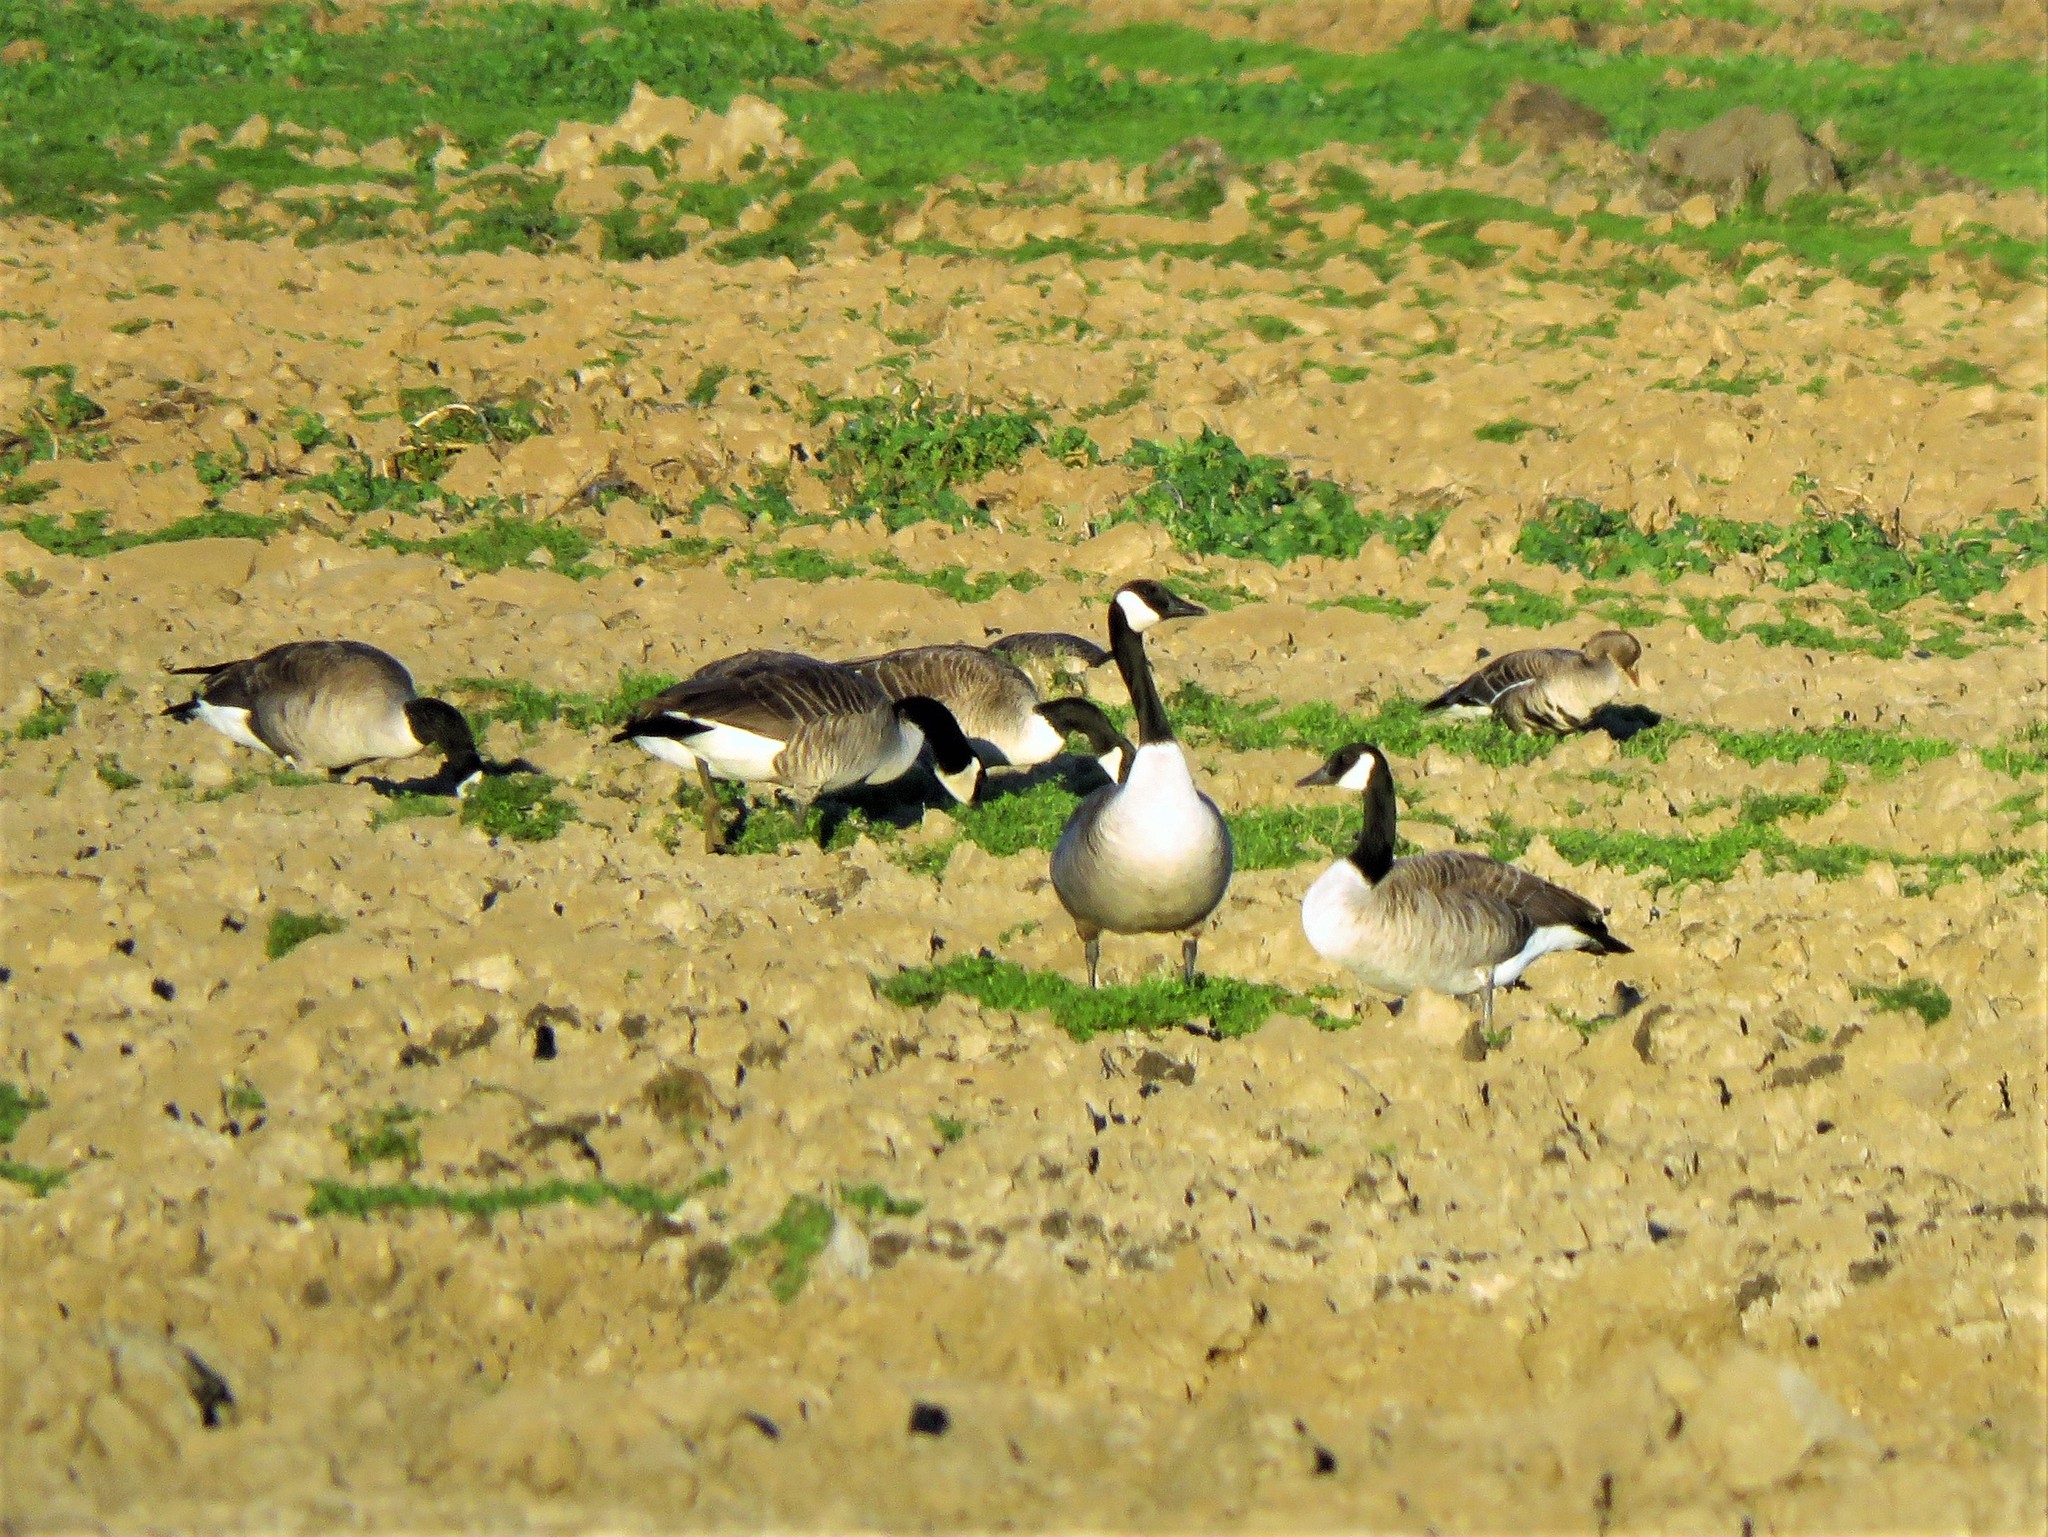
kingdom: Animalia
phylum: Chordata
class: Aves
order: Anseriformes
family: Anatidae
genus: Branta
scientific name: Branta canadensis
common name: Canada goose
